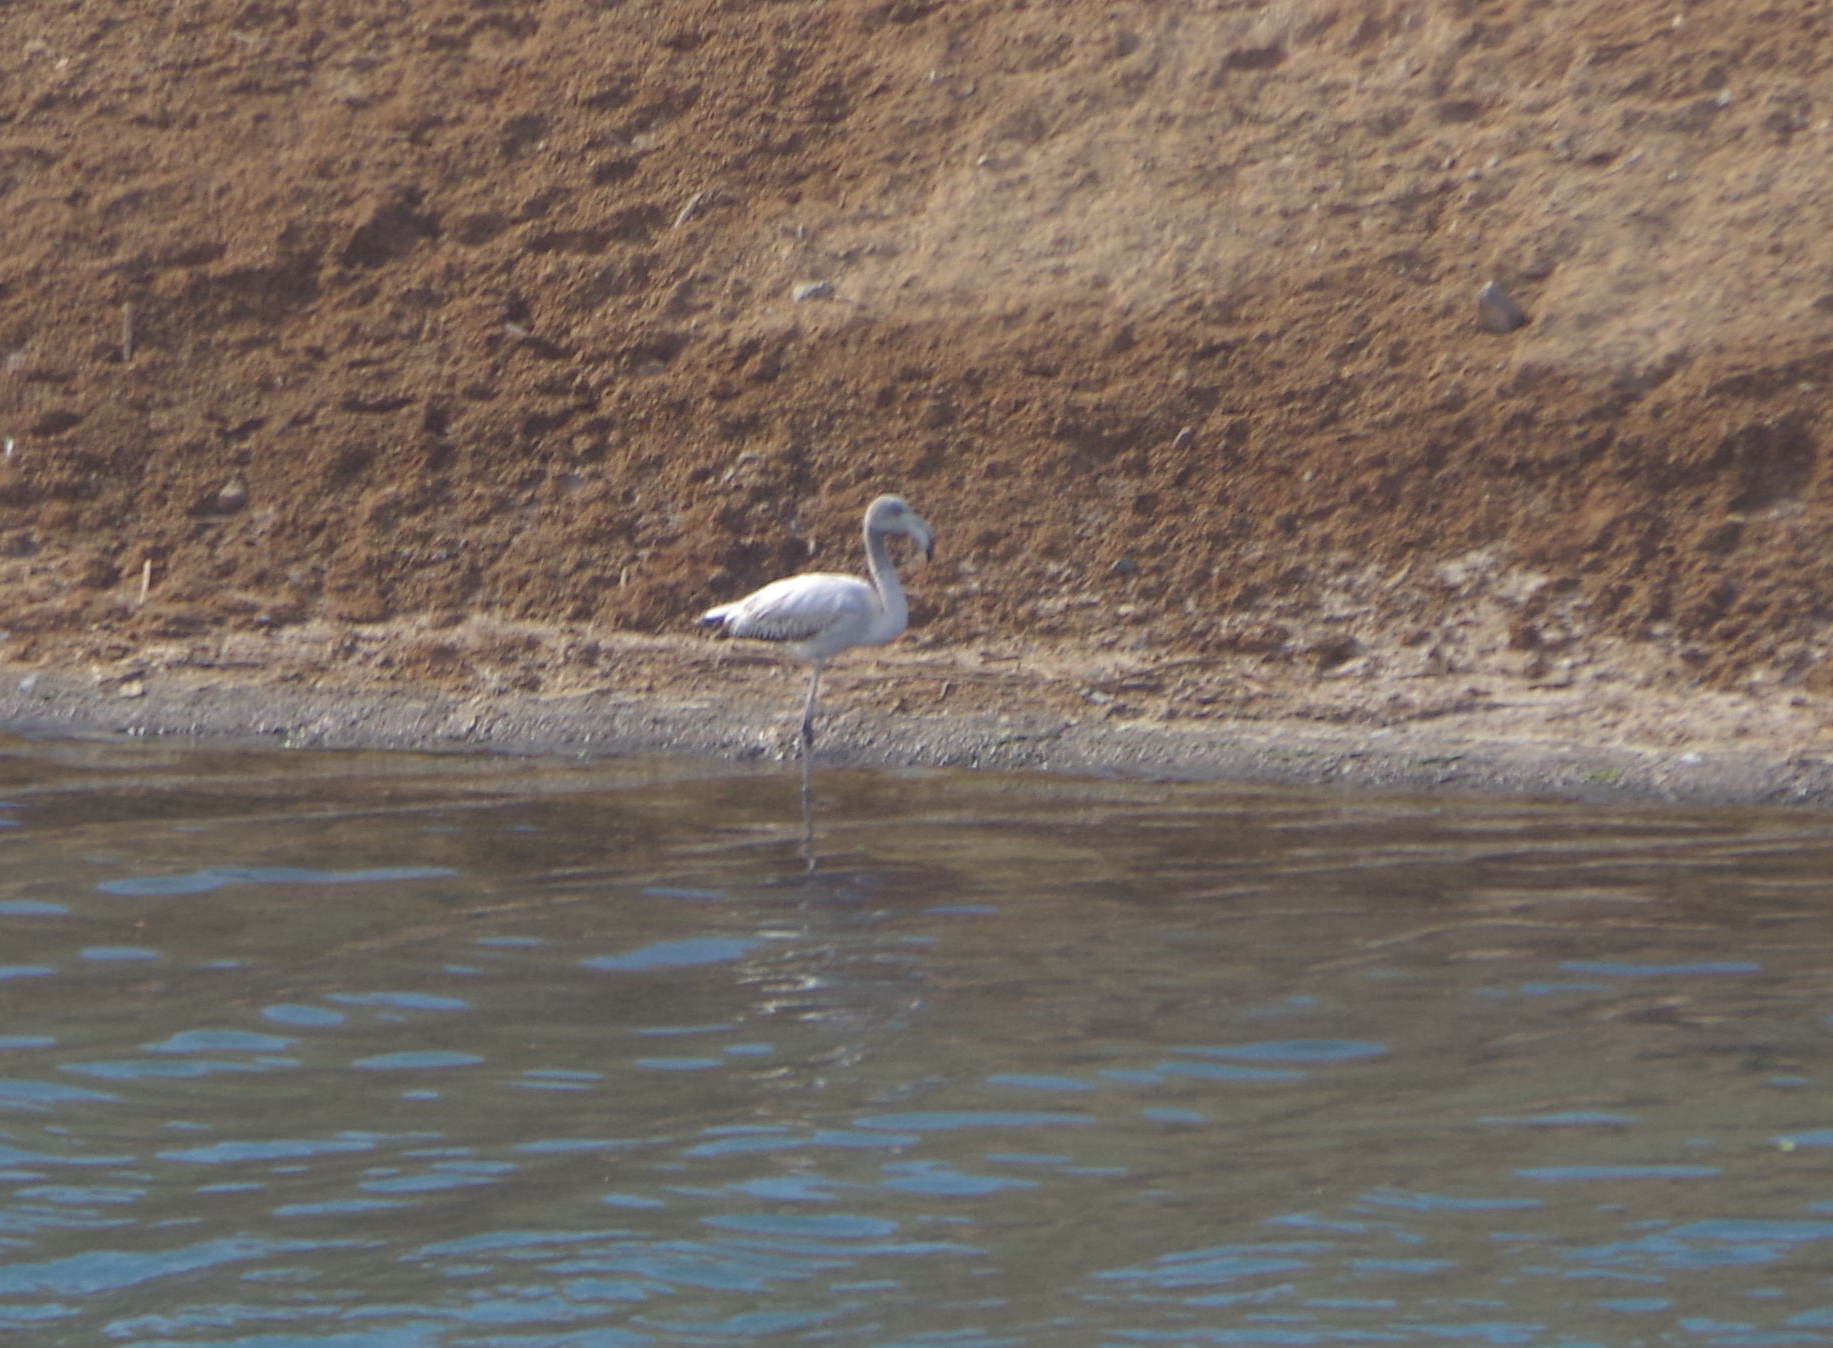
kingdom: Animalia
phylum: Chordata
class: Aves
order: Phoenicopteriformes
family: Phoenicopteridae
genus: Phoenicopterus
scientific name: Phoenicopterus roseus
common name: Greater flamingo
